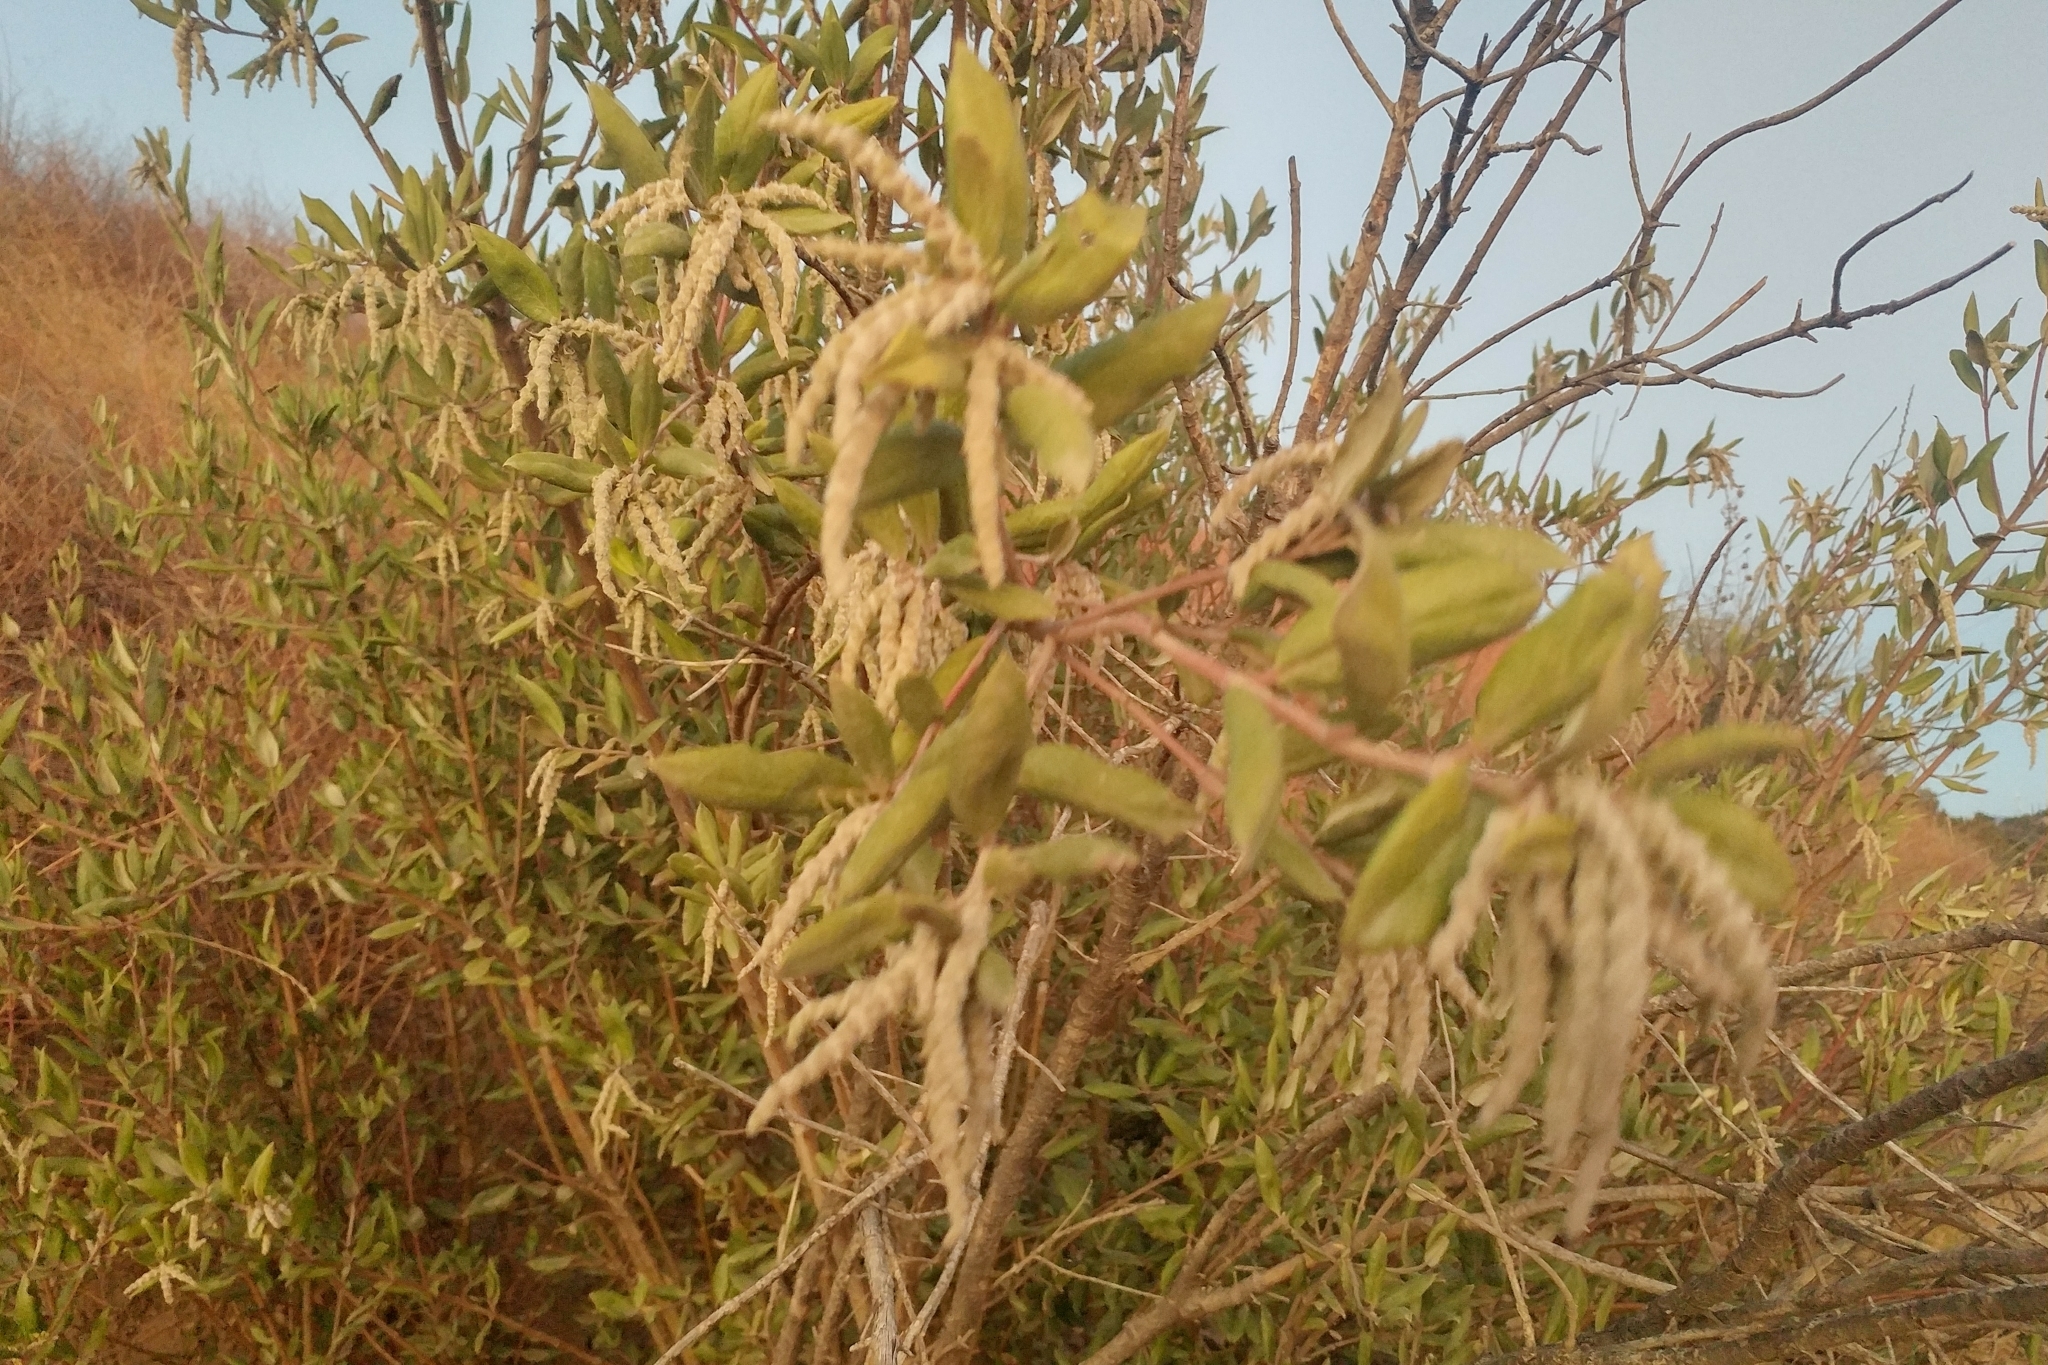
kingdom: Plantae
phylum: Tracheophyta
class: Magnoliopsida
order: Garryales
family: Garryaceae
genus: Garrya
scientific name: Garrya elliptica
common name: Silk-tassel
